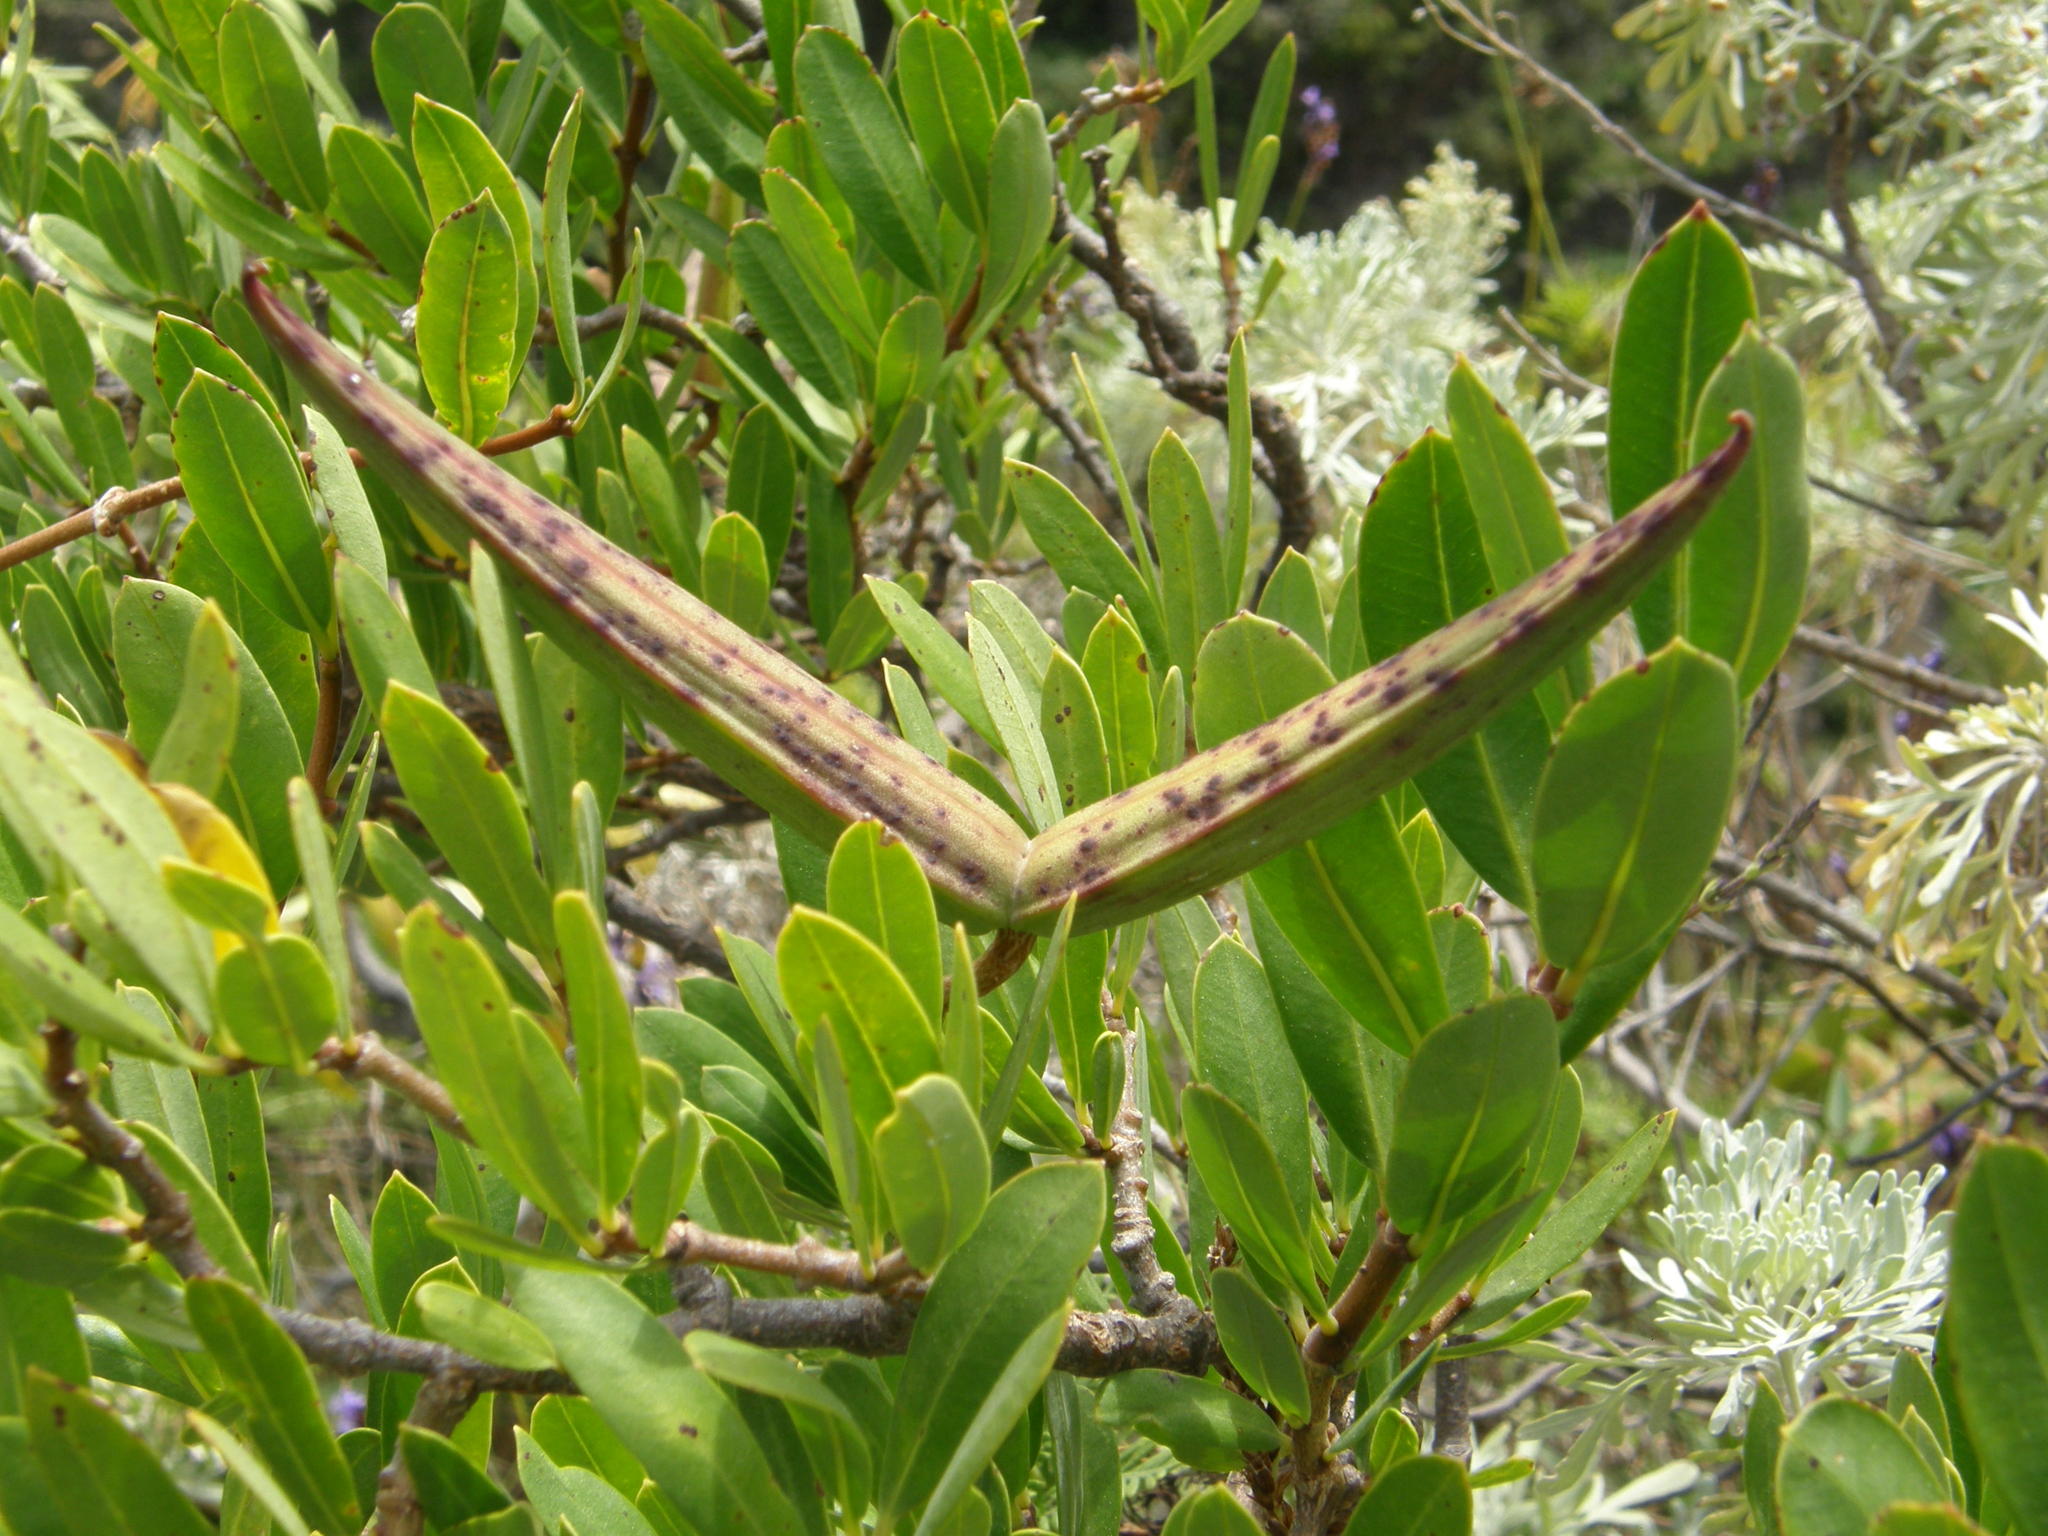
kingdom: Plantae
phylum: Tracheophyta
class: Magnoliopsida
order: Gentianales
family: Apocynaceae
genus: Periploca
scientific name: Periploca laevigata
